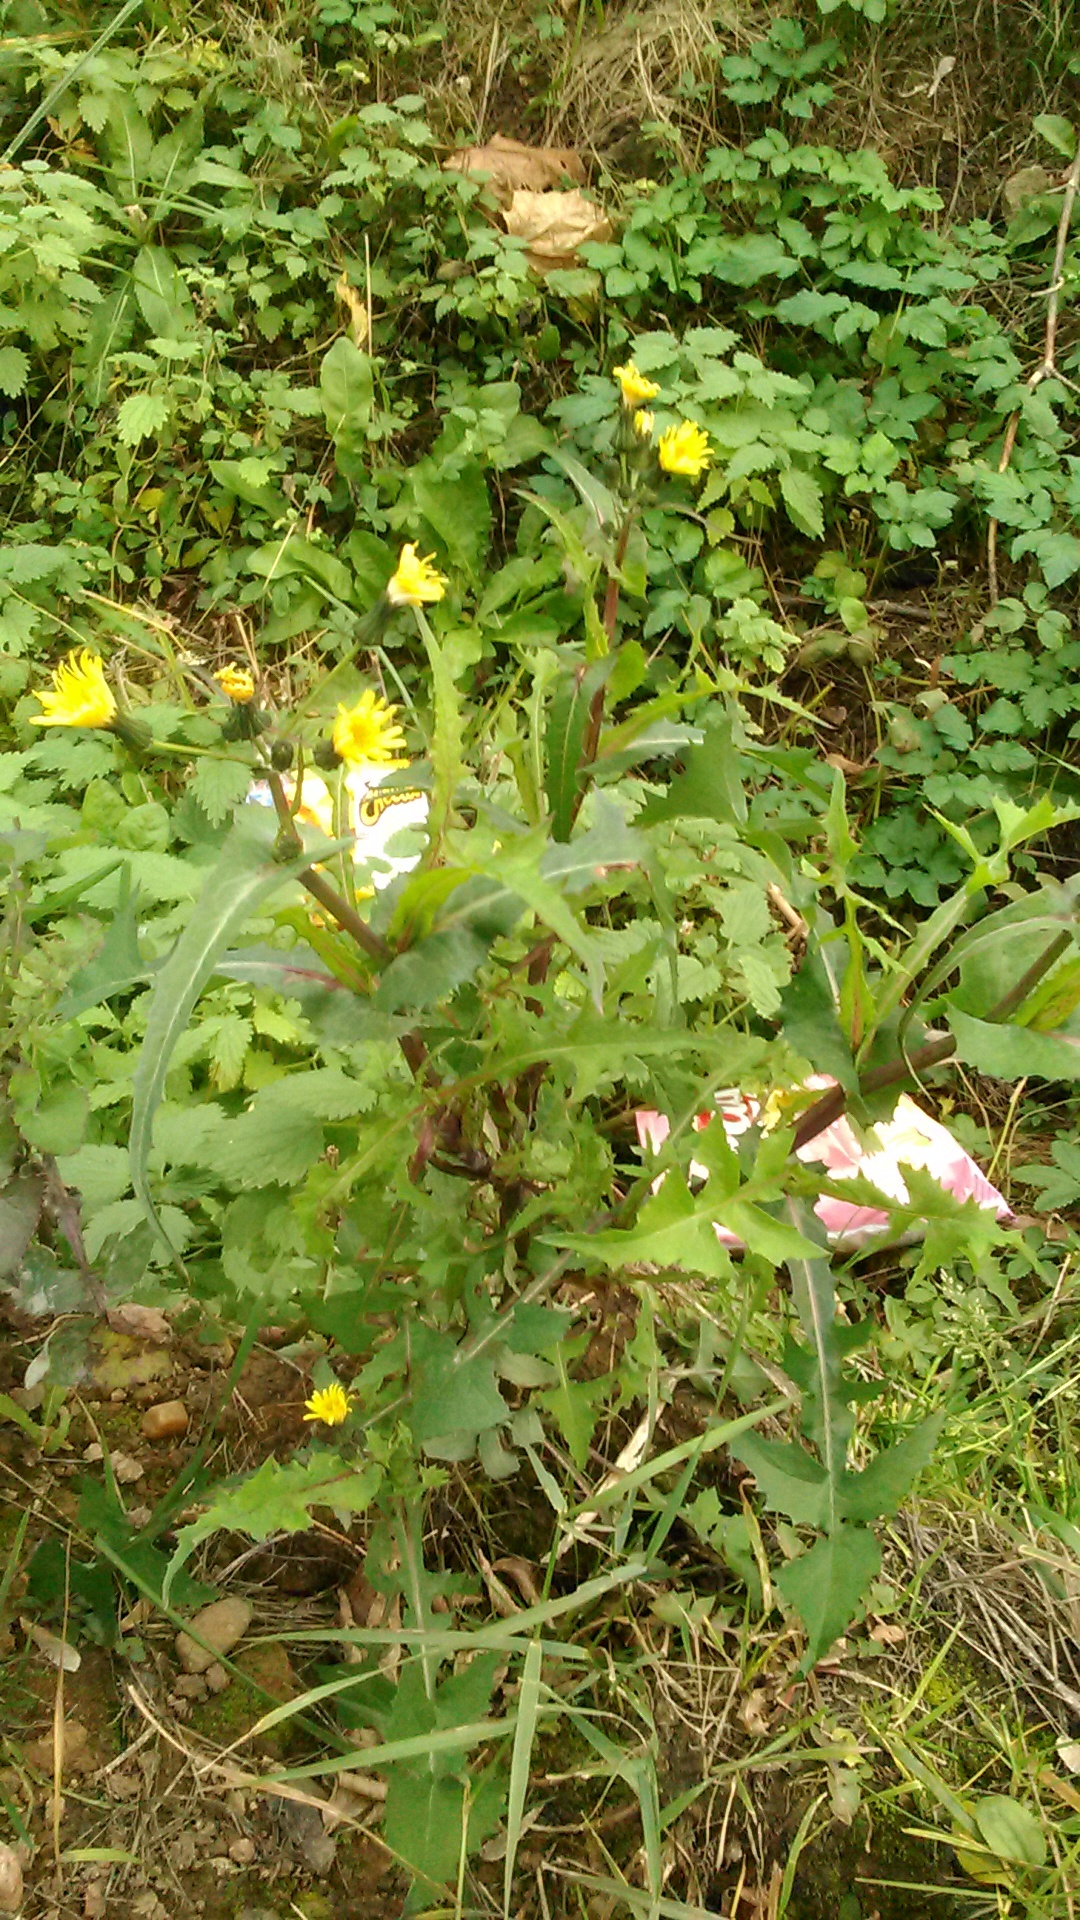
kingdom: Plantae
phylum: Tracheophyta
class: Magnoliopsida
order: Asterales
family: Asteraceae
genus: Sonchus
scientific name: Sonchus oleraceus
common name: Common sowthistle
